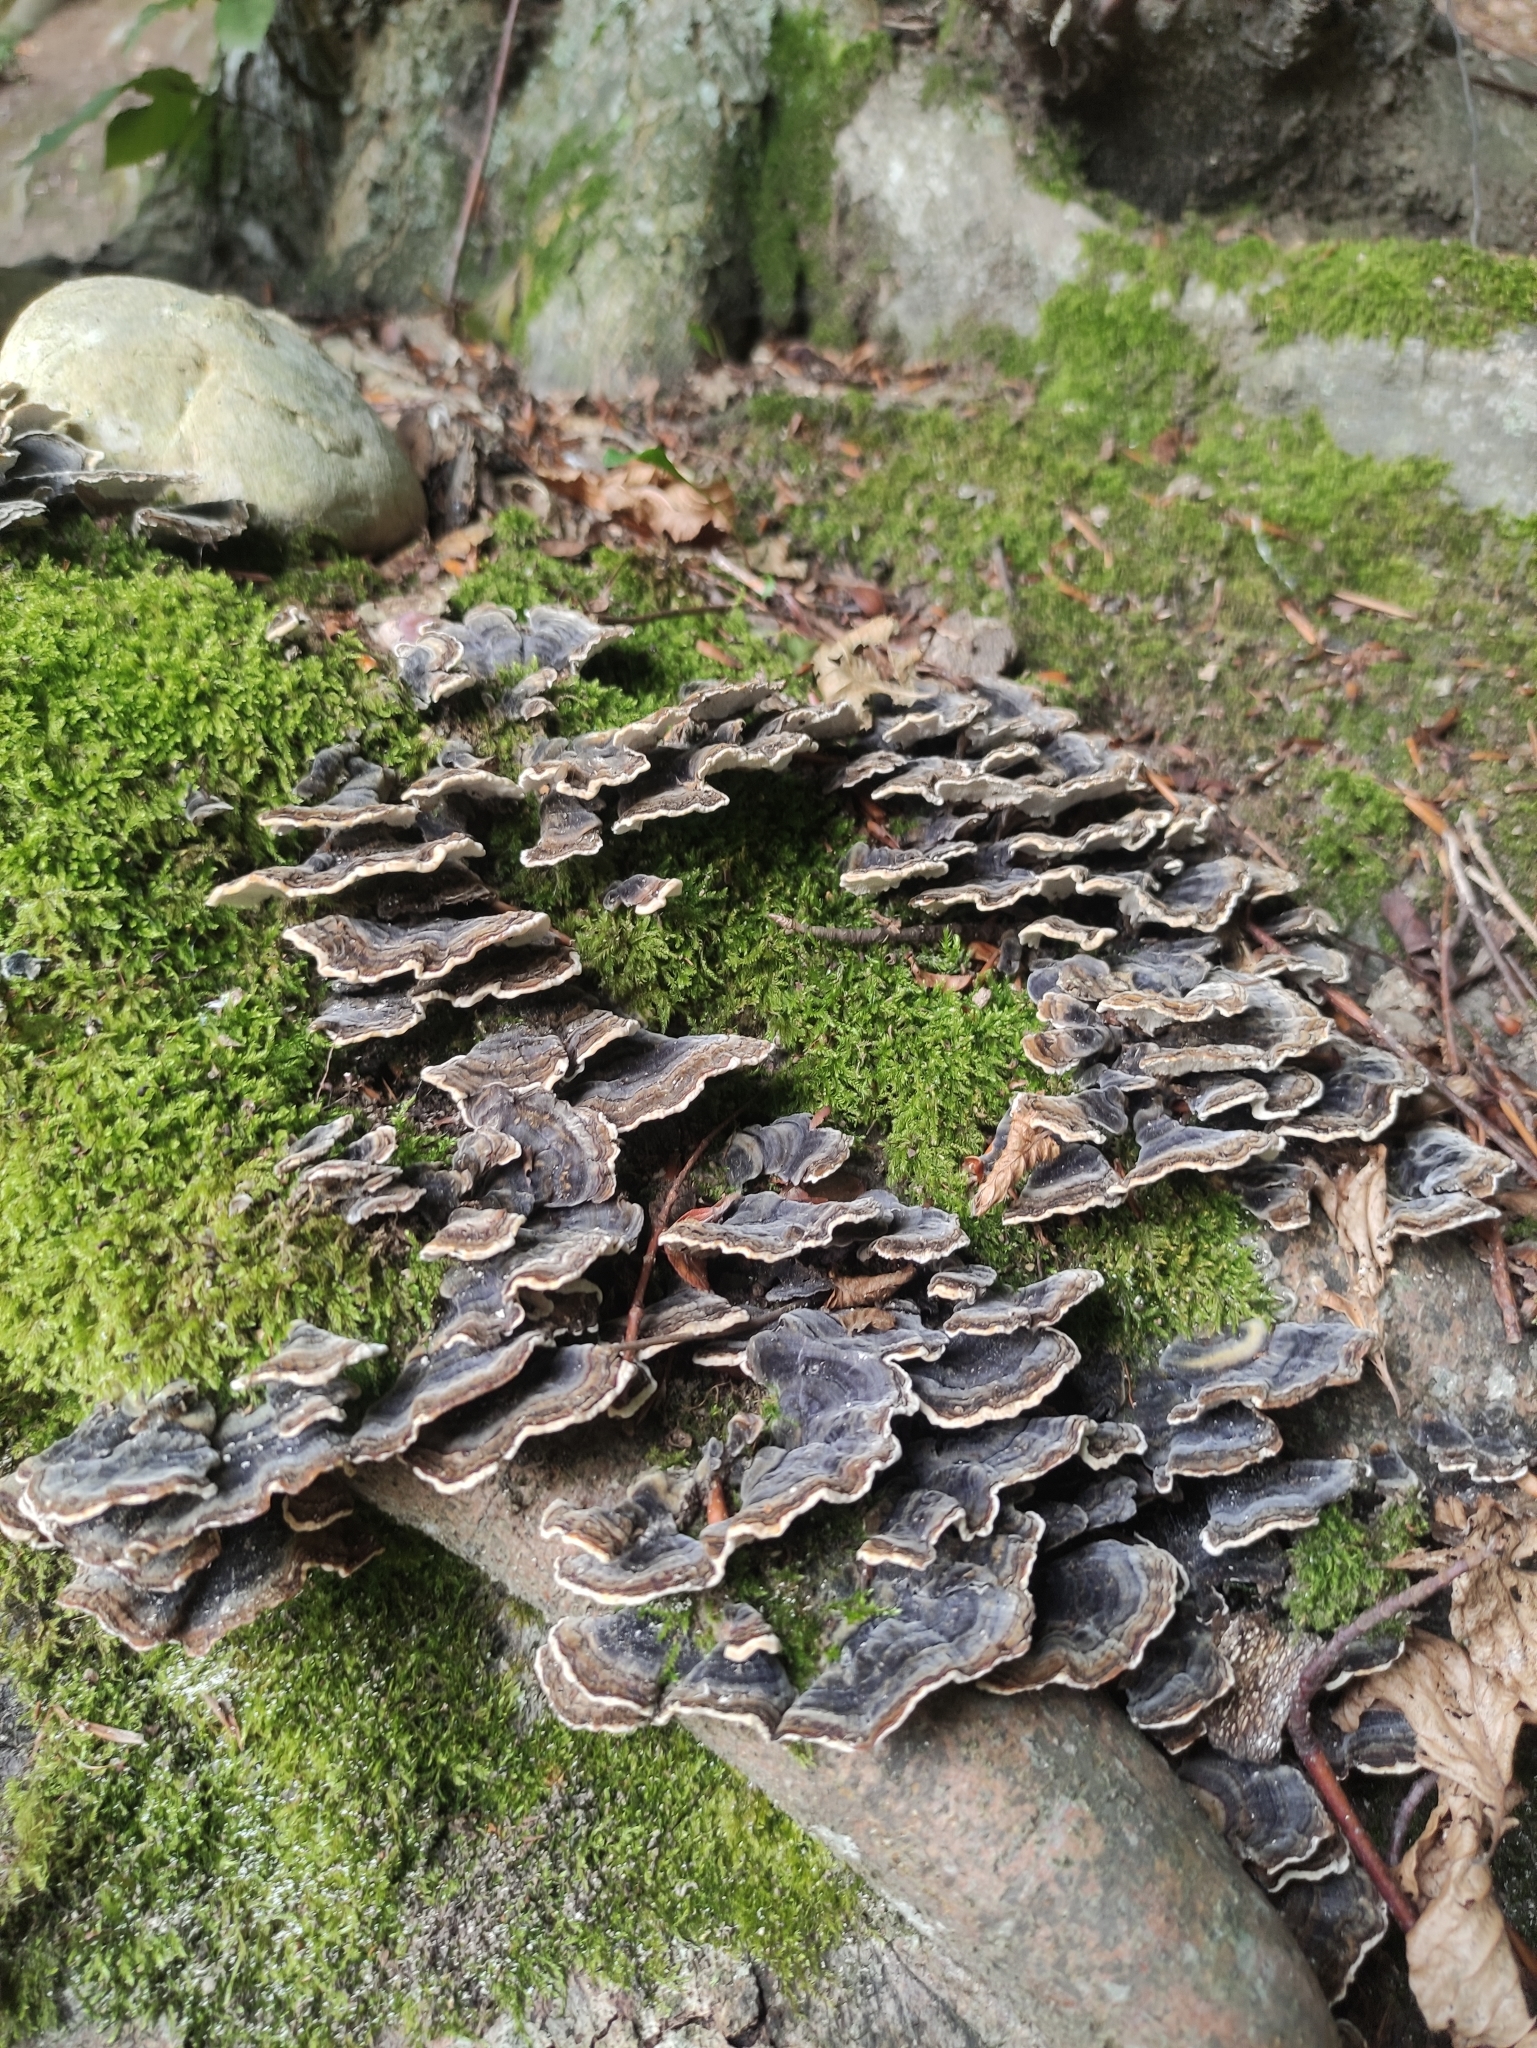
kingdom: Fungi
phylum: Basidiomycota
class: Agaricomycetes
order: Polyporales
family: Polyporaceae
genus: Trametes
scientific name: Trametes versicolor
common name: Turkeytail
